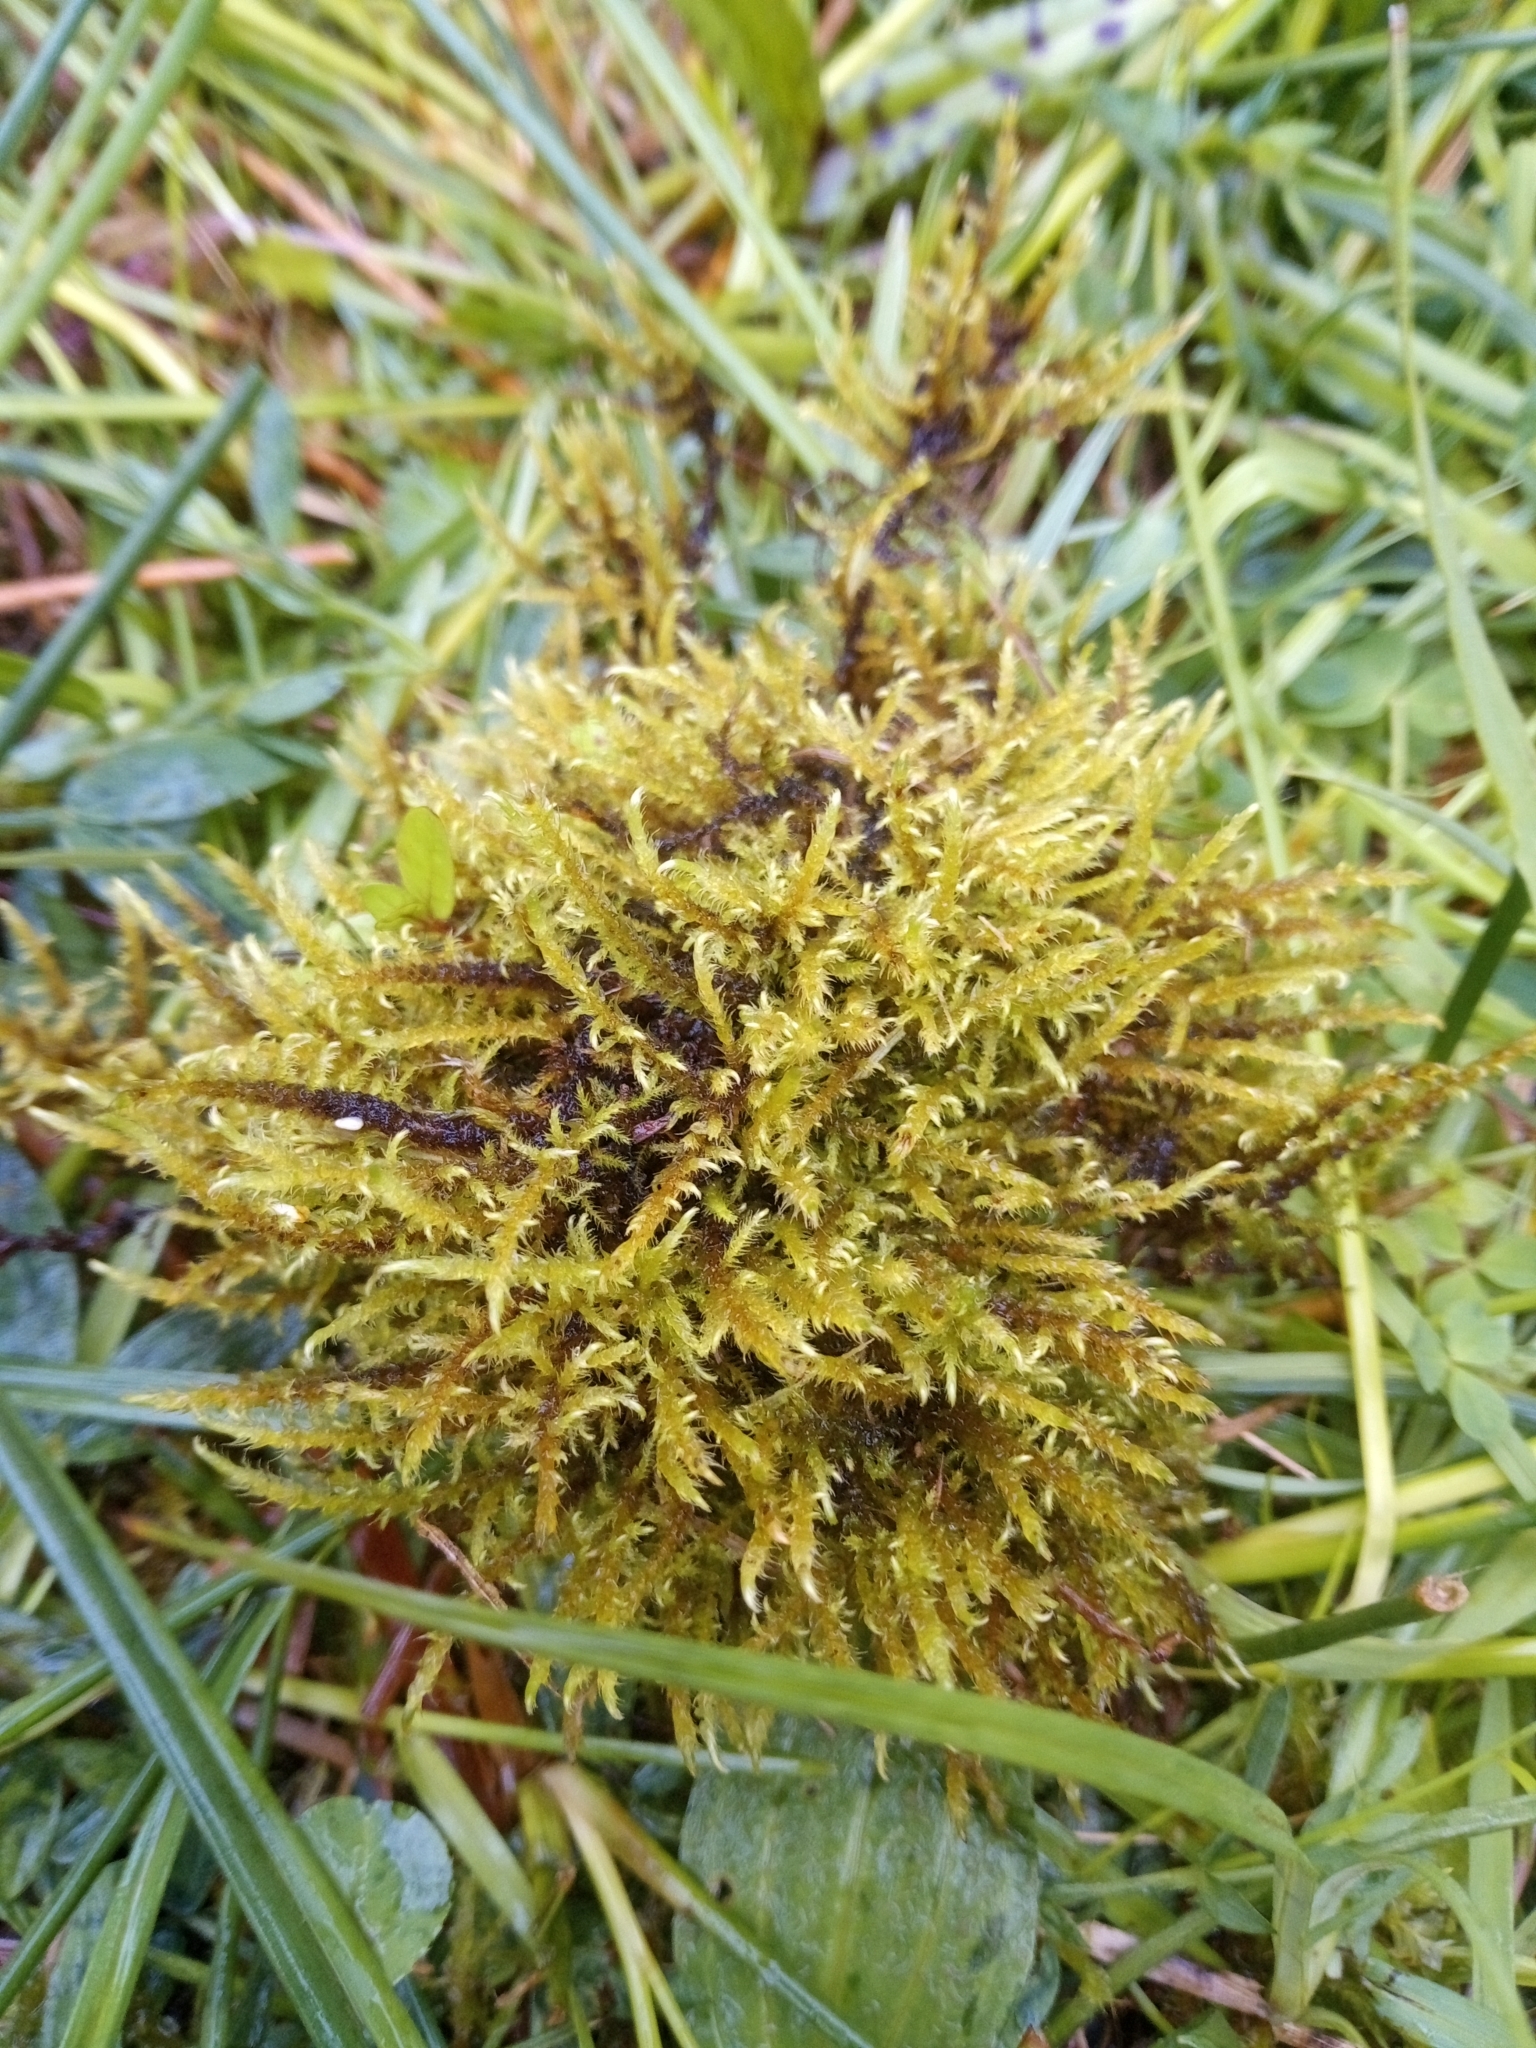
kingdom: Plantae
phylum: Bryophyta
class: Bryopsida
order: Hypnales
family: Amblystegiaceae
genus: Cratoneuron
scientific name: Cratoneuron filicinum
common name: Fern-leaved hook moss
